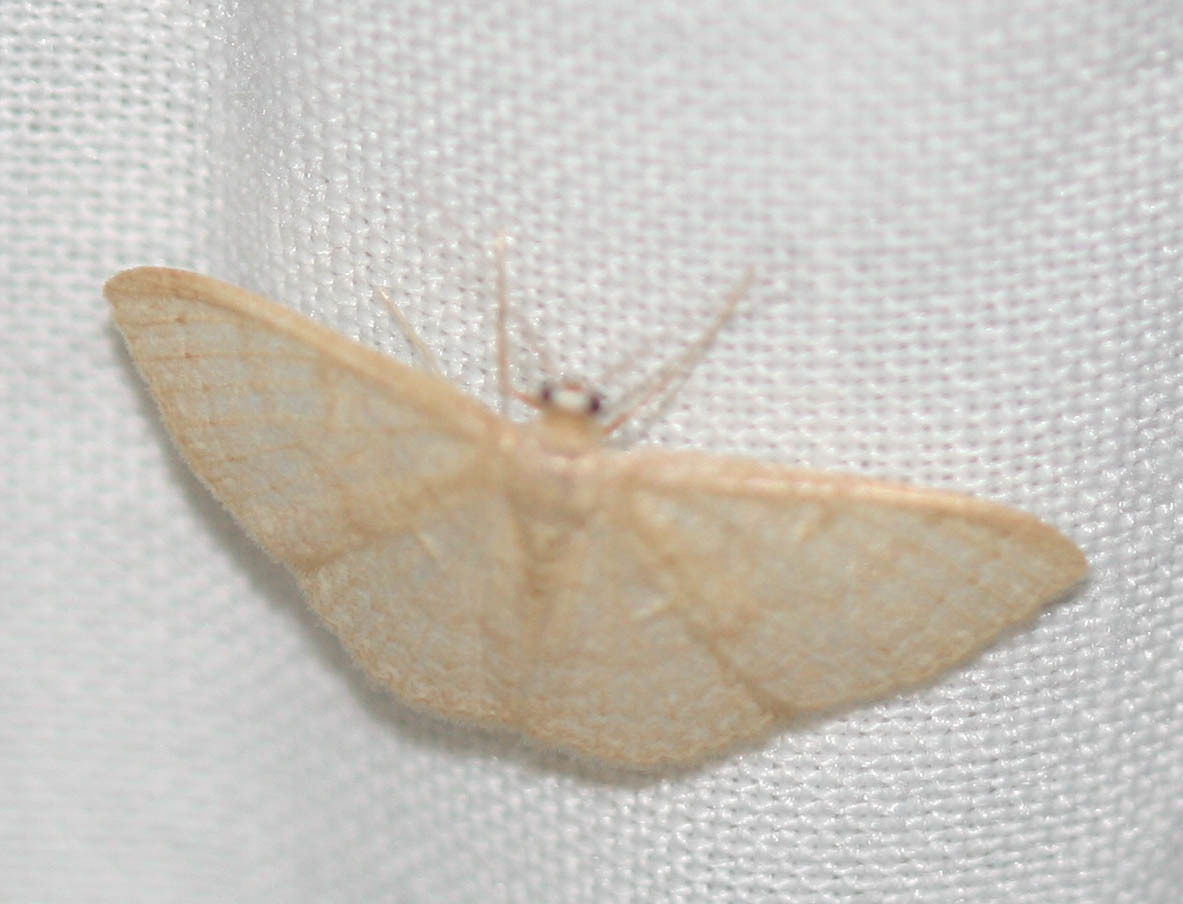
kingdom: Animalia
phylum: Arthropoda
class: Insecta
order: Lepidoptera
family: Geometridae
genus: Pleuroprucha
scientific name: Pleuroprucha insulsaria
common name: Common tan wave
